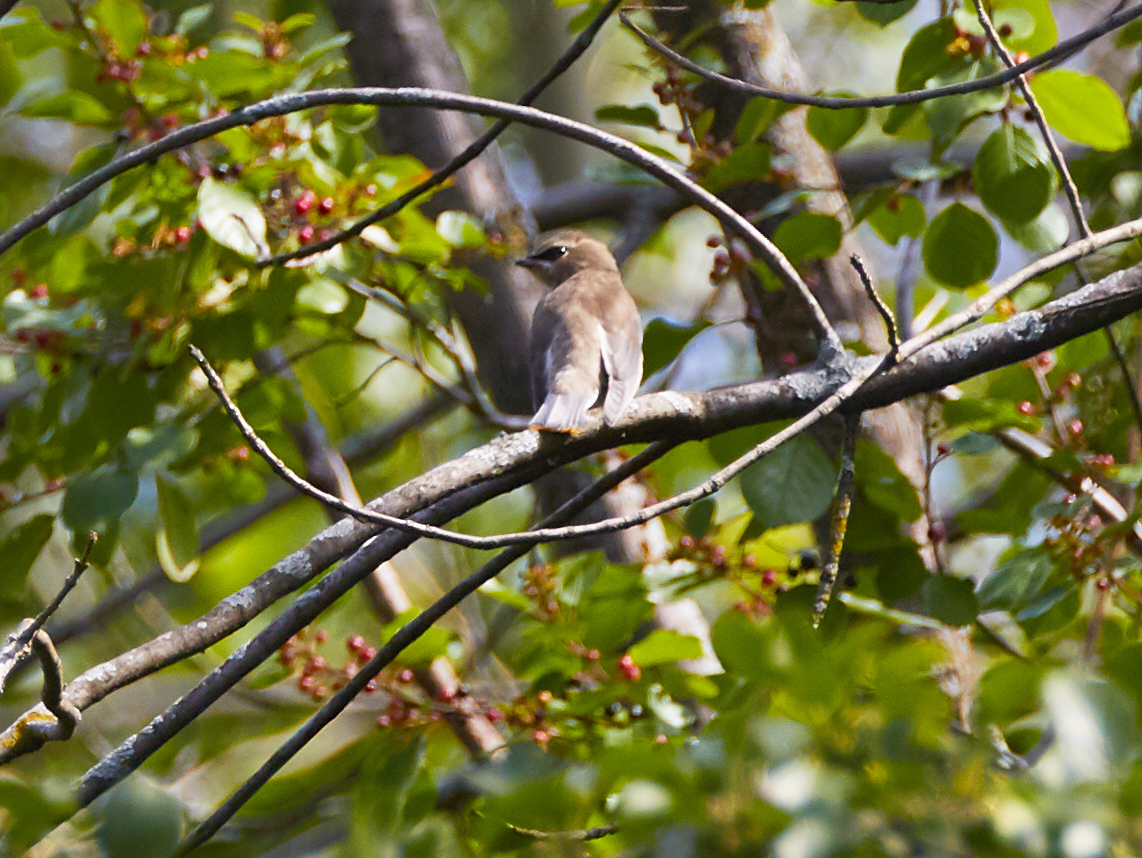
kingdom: Animalia
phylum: Chordata
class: Aves
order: Passeriformes
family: Bombycillidae
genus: Bombycilla
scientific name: Bombycilla cedrorum
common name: Cedar waxwing
